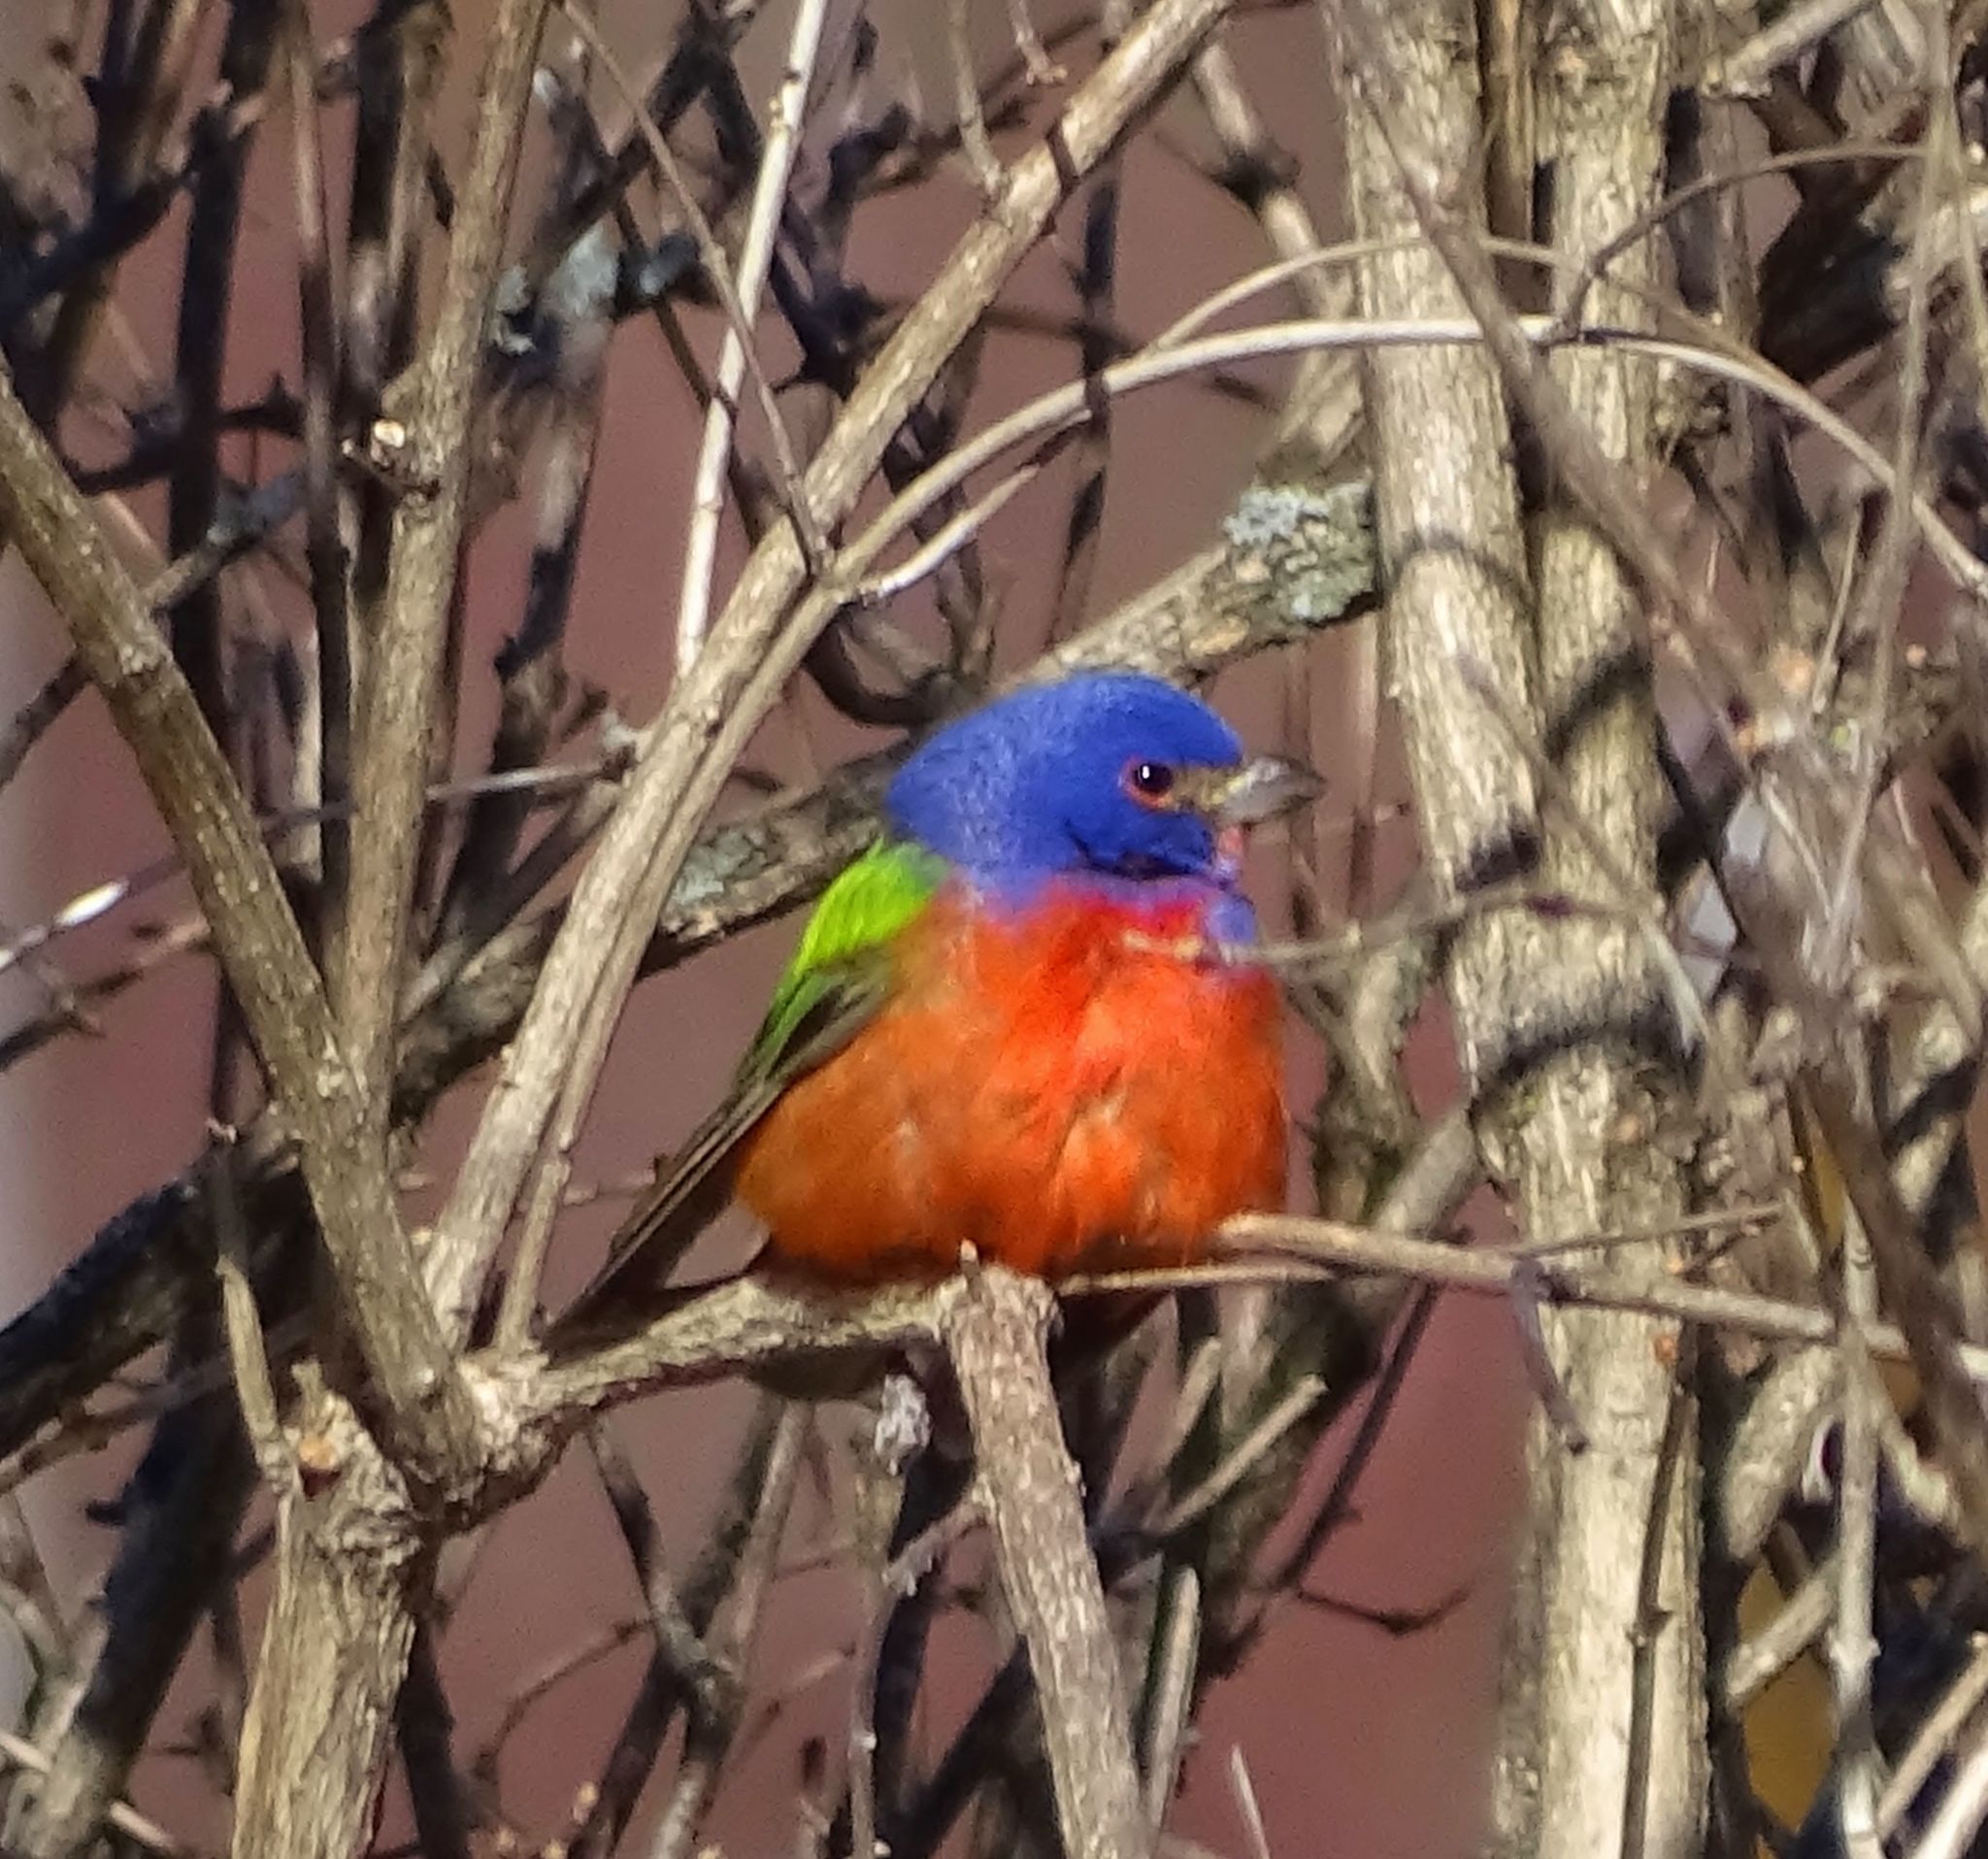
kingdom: Animalia
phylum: Chordata
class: Aves
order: Passeriformes
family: Cardinalidae
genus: Passerina
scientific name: Passerina ciris
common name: Painted bunting
